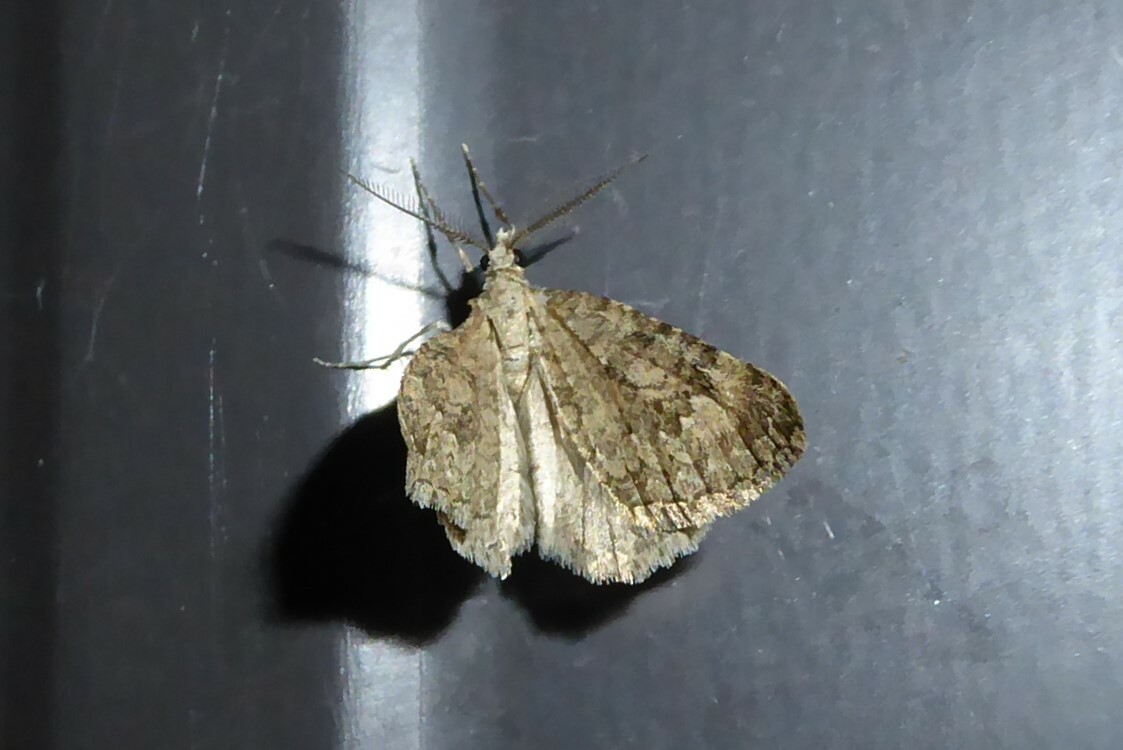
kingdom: Animalia
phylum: Arthropoda
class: Insecta
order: Lepidoptera
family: Geometridae
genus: Helastia
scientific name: Helastia corcularia
